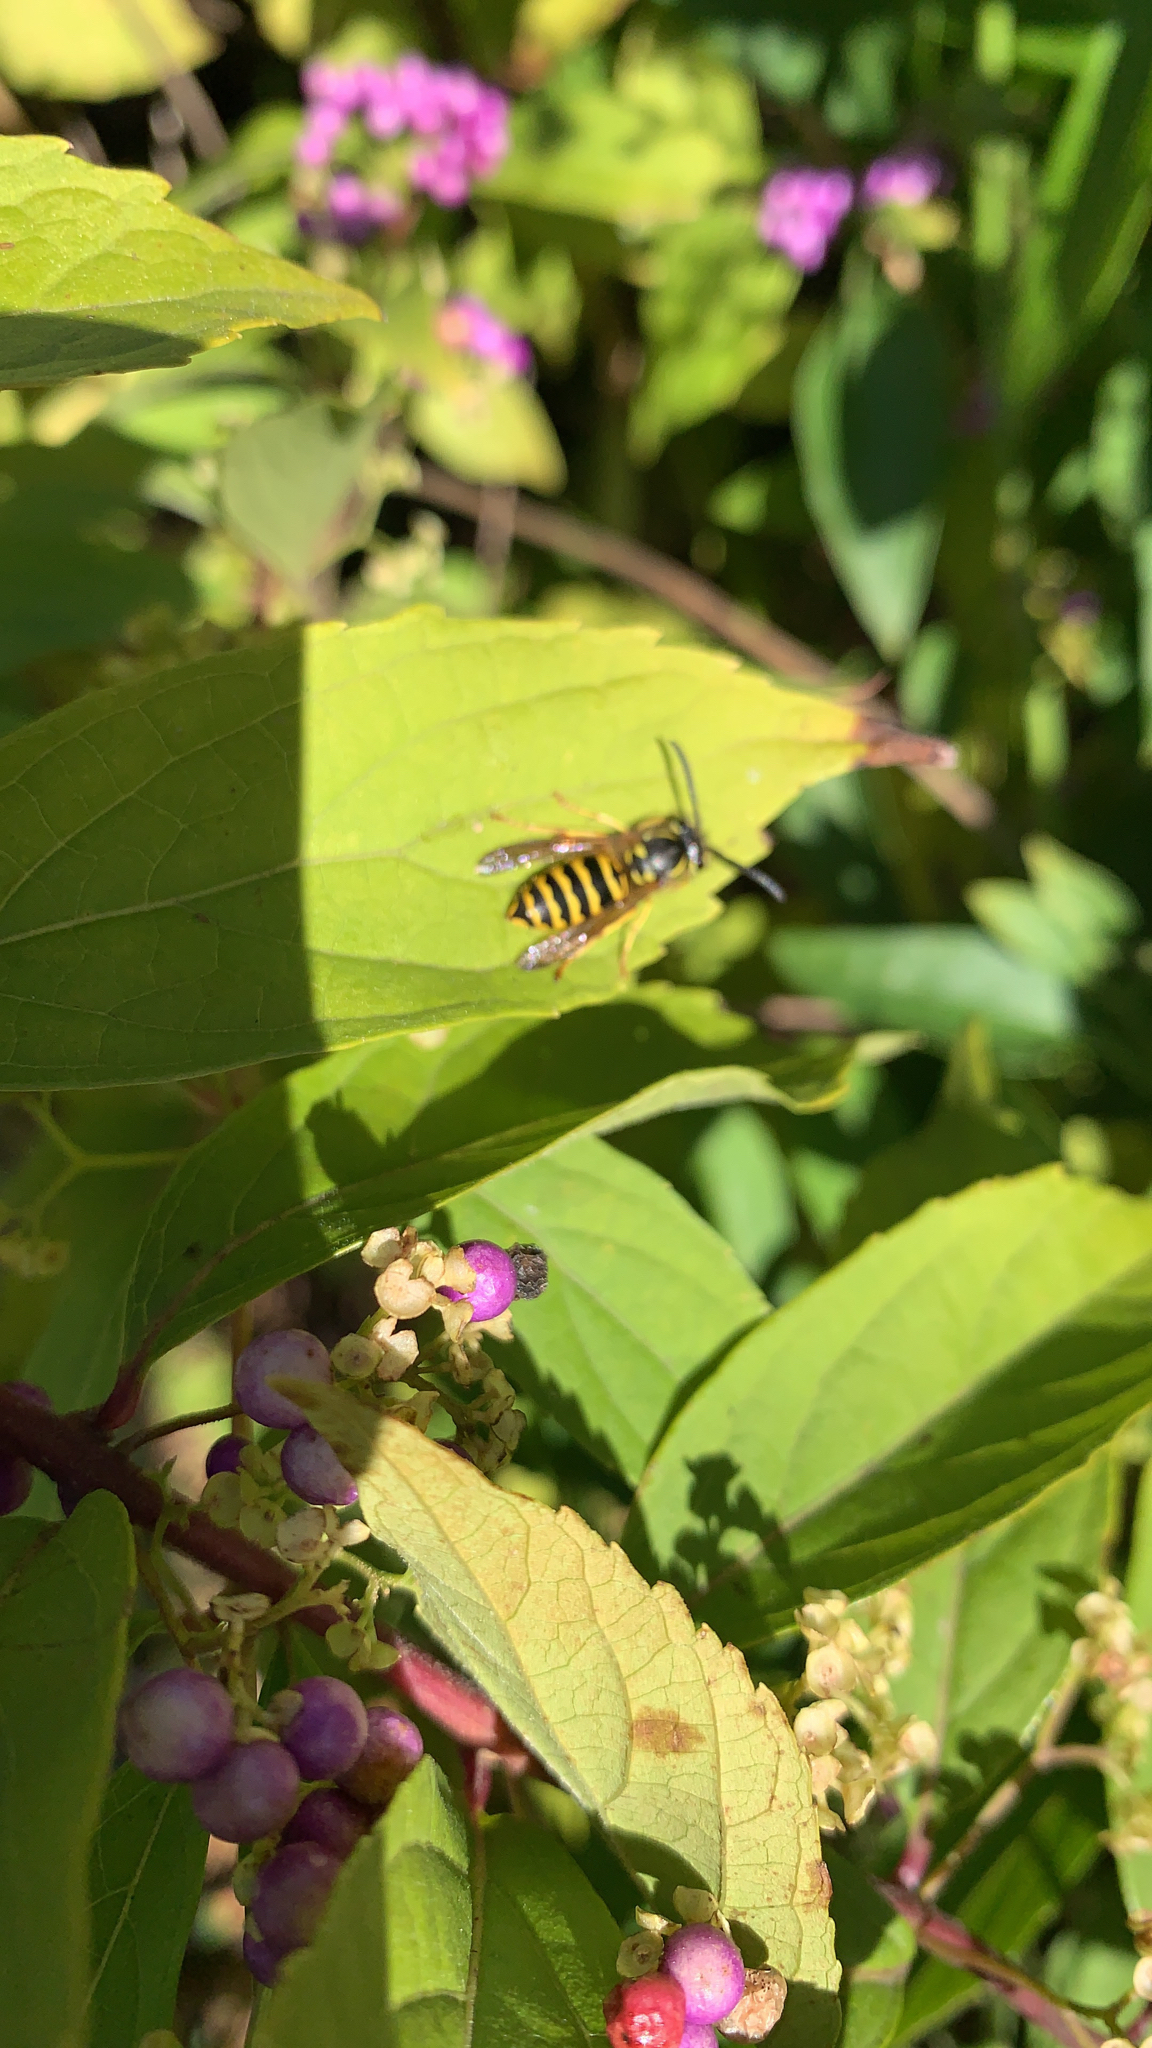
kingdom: Animalia
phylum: Arthropoda
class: Insecta
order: Hymenoptera
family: Vespidae
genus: Vespula
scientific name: Vespula maculifrons
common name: Eastern yellowjacket
